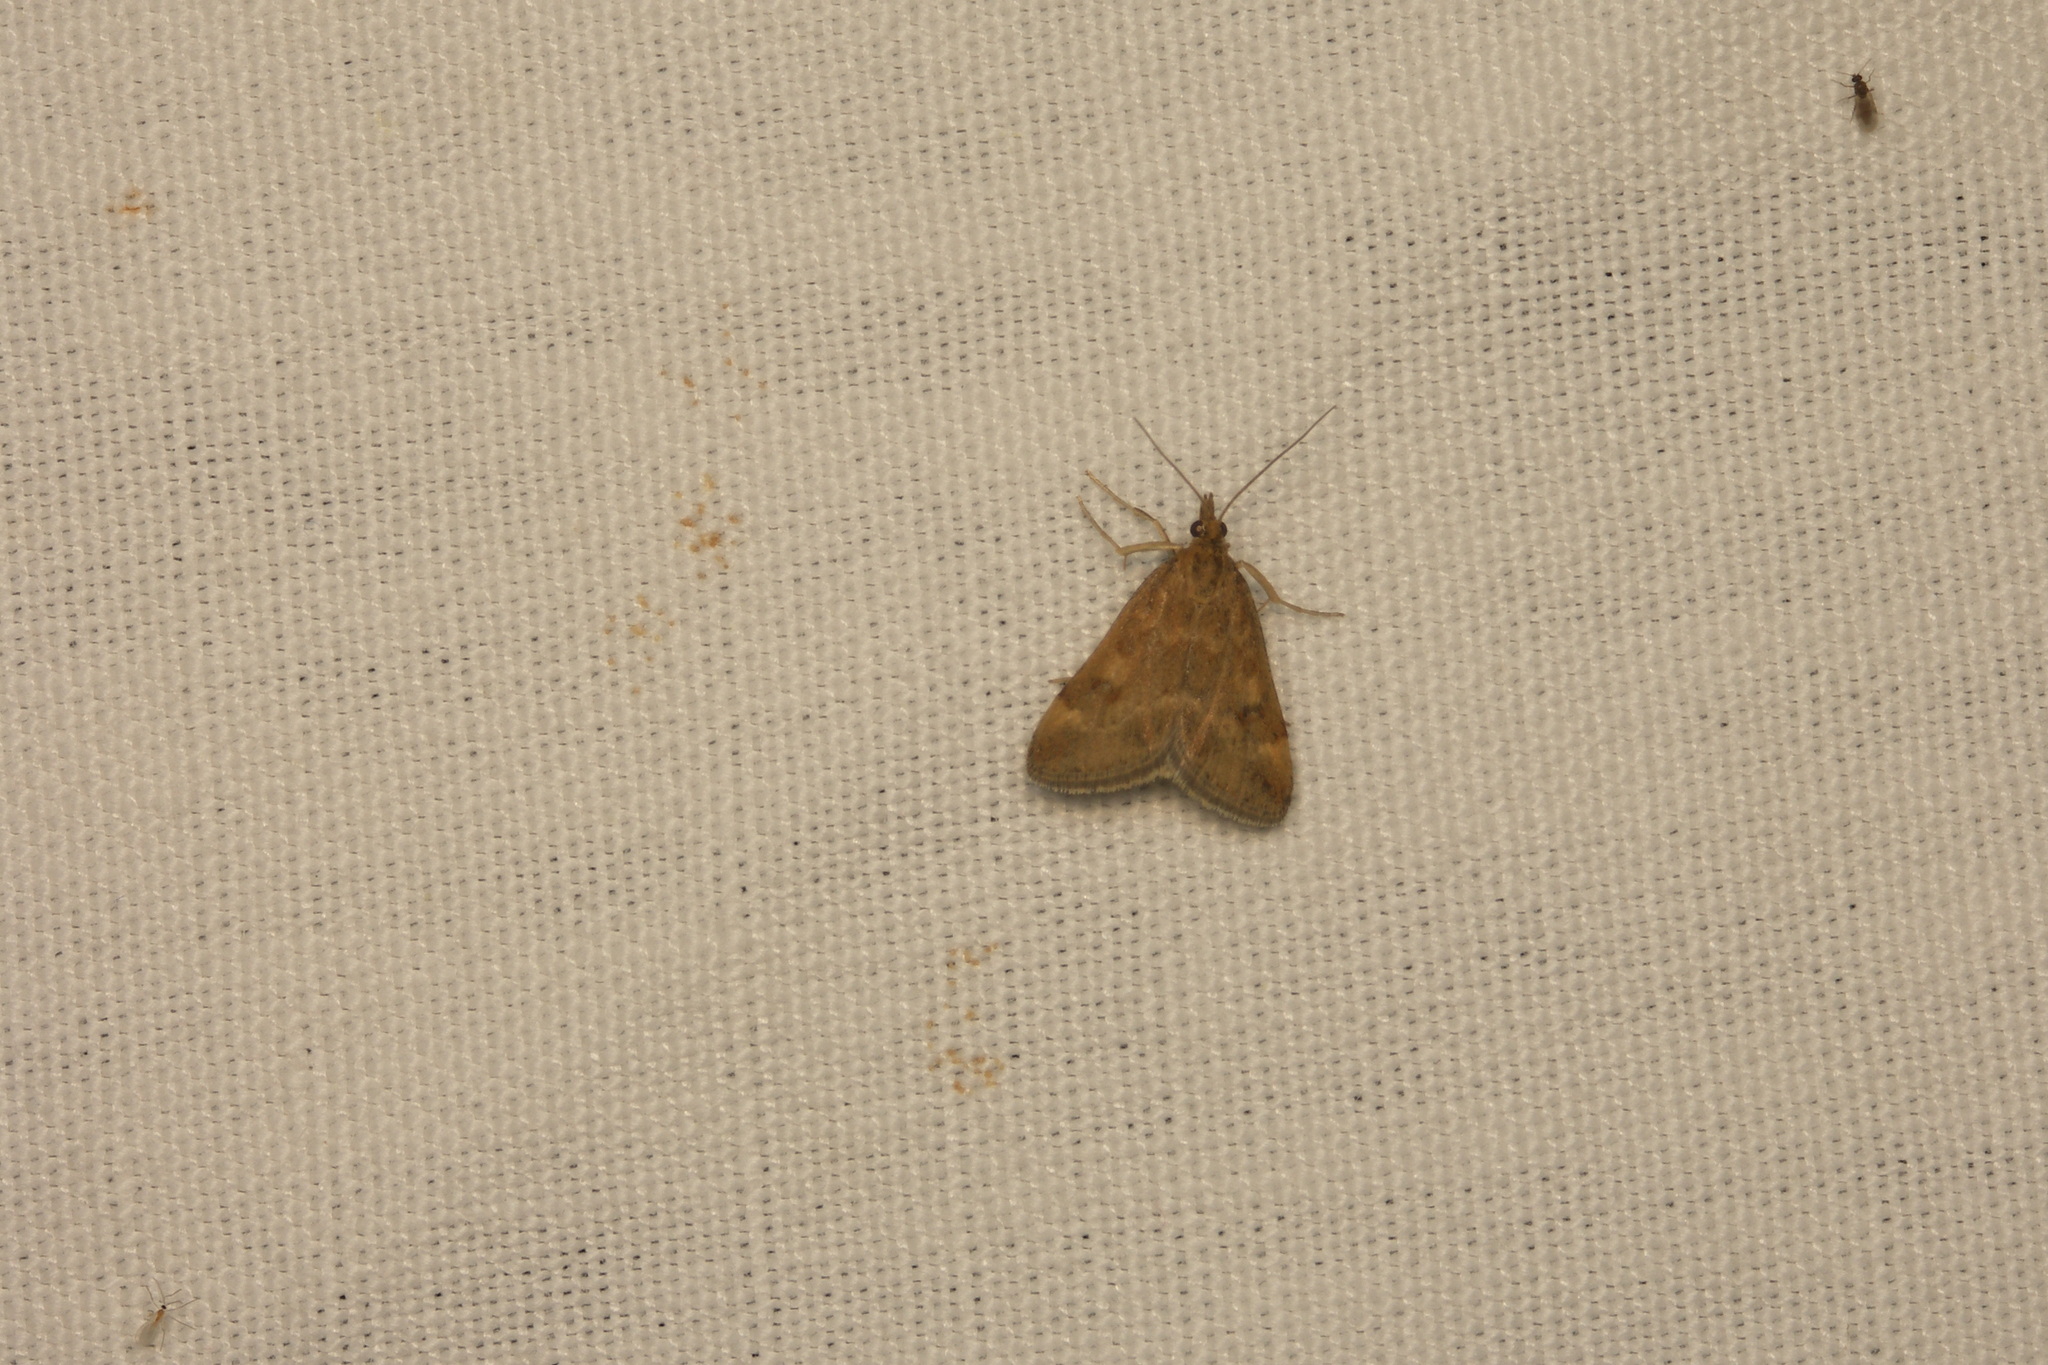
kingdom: Animalia
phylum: Arthropoda
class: Insecta
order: Lepidoptera
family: Crambidae
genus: Pyrausta
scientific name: Pyrausta despicata
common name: Straw-barred pearl
